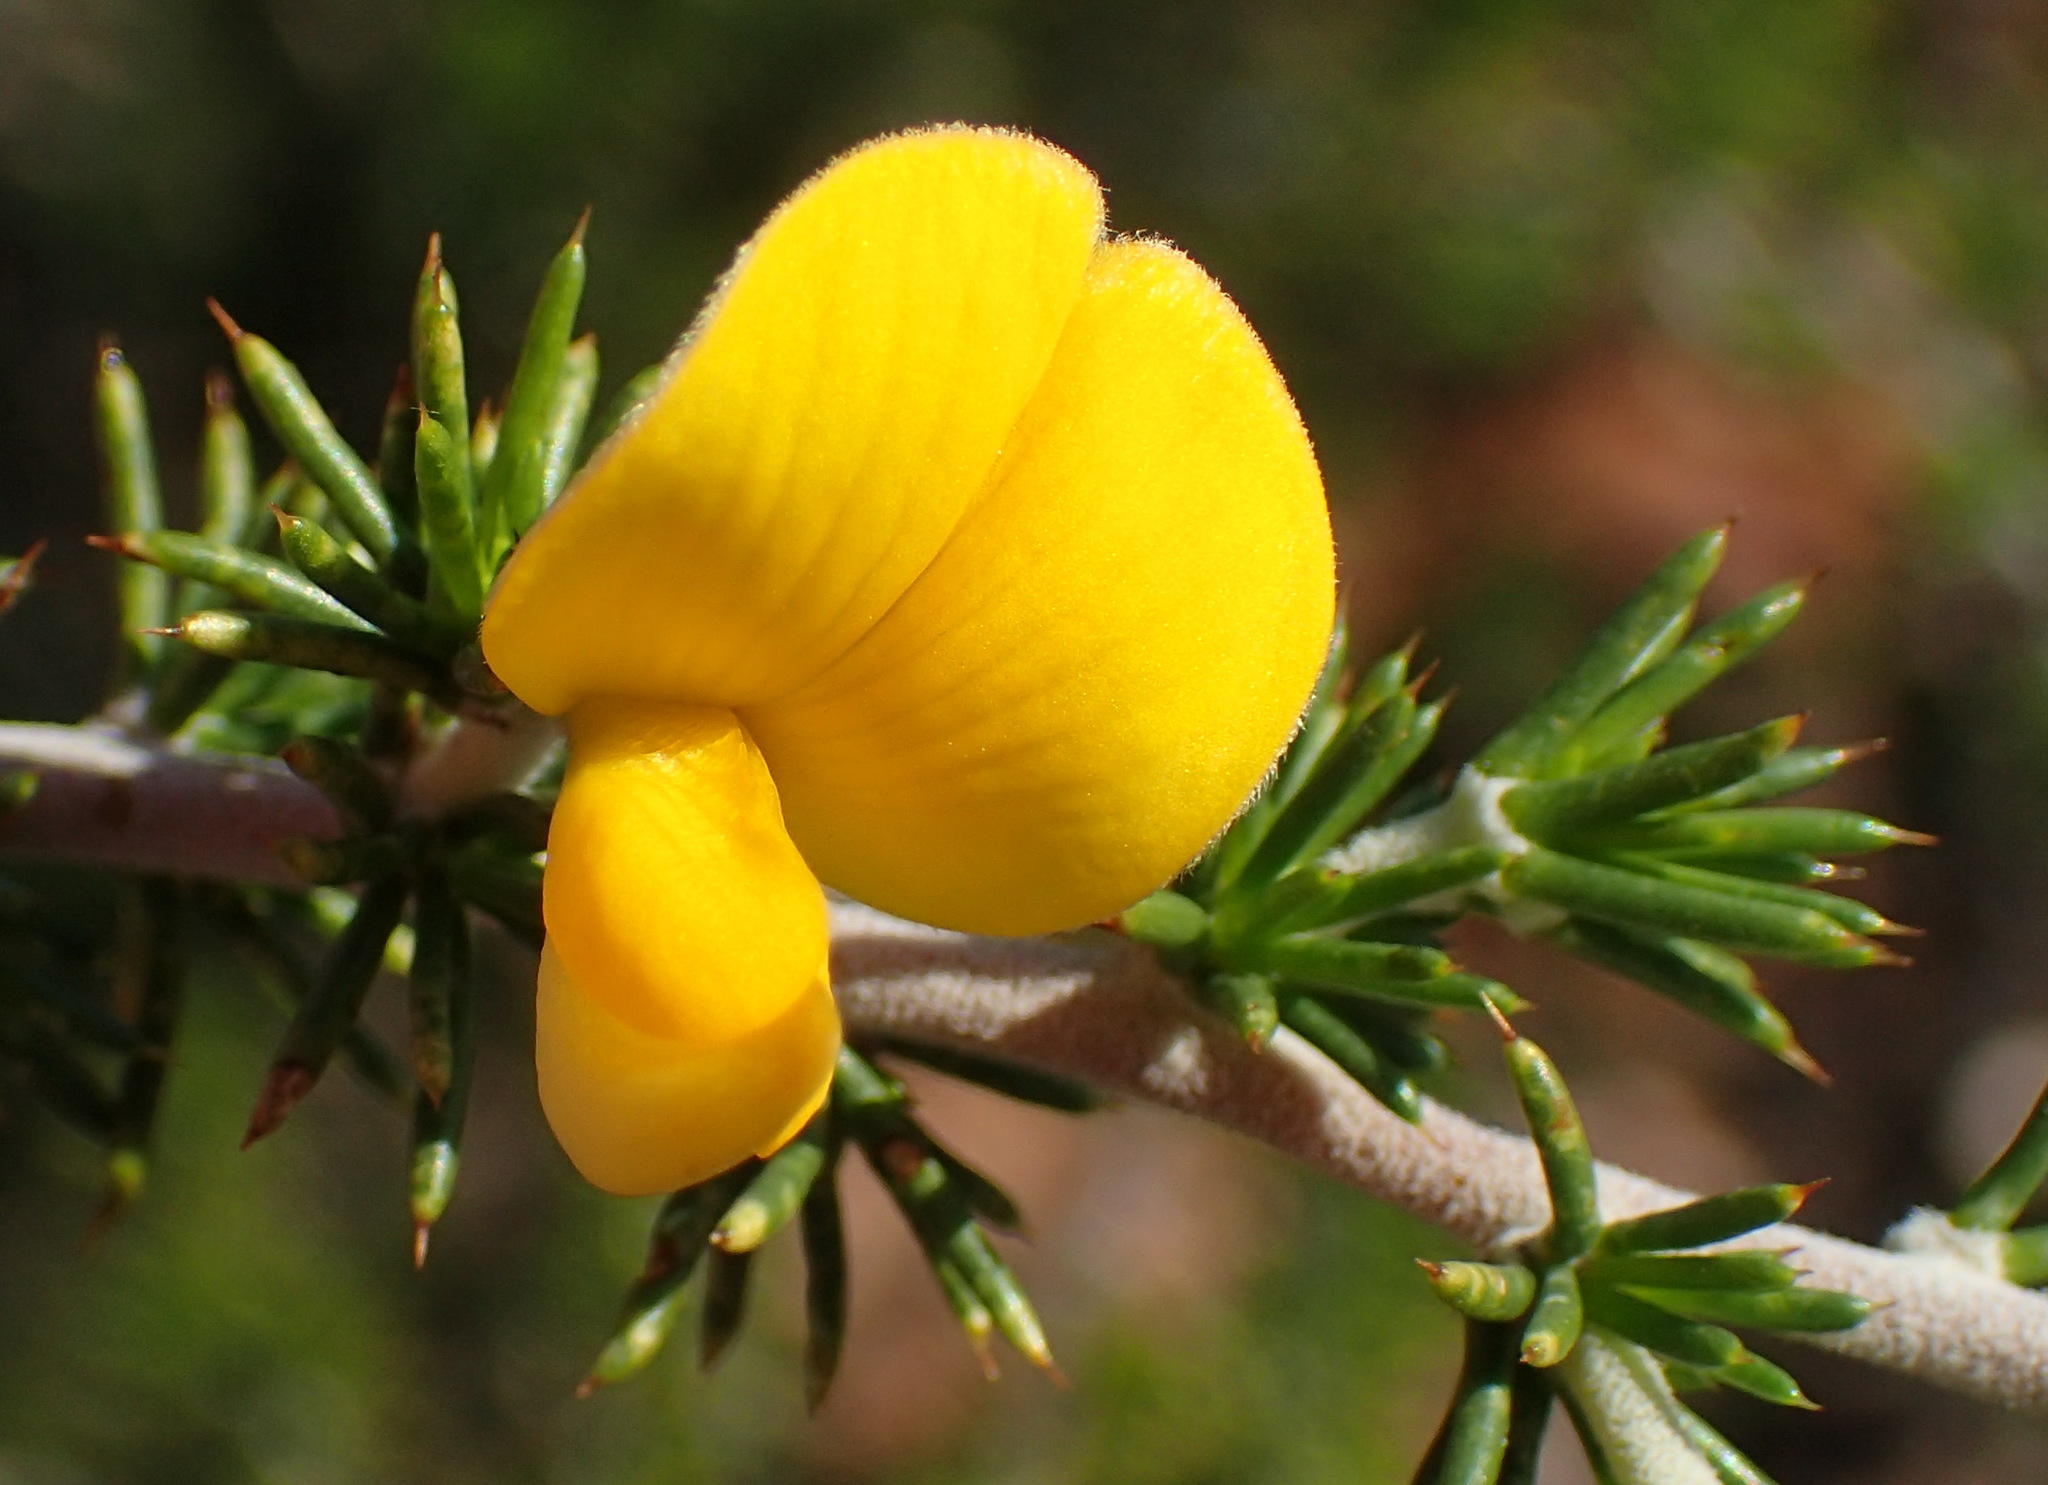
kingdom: Plantae
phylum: Tracheophyta
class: Magnoliopsida
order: Fabales
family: Fabaceae
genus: Aspalathus
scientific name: Aspalathus hirta
